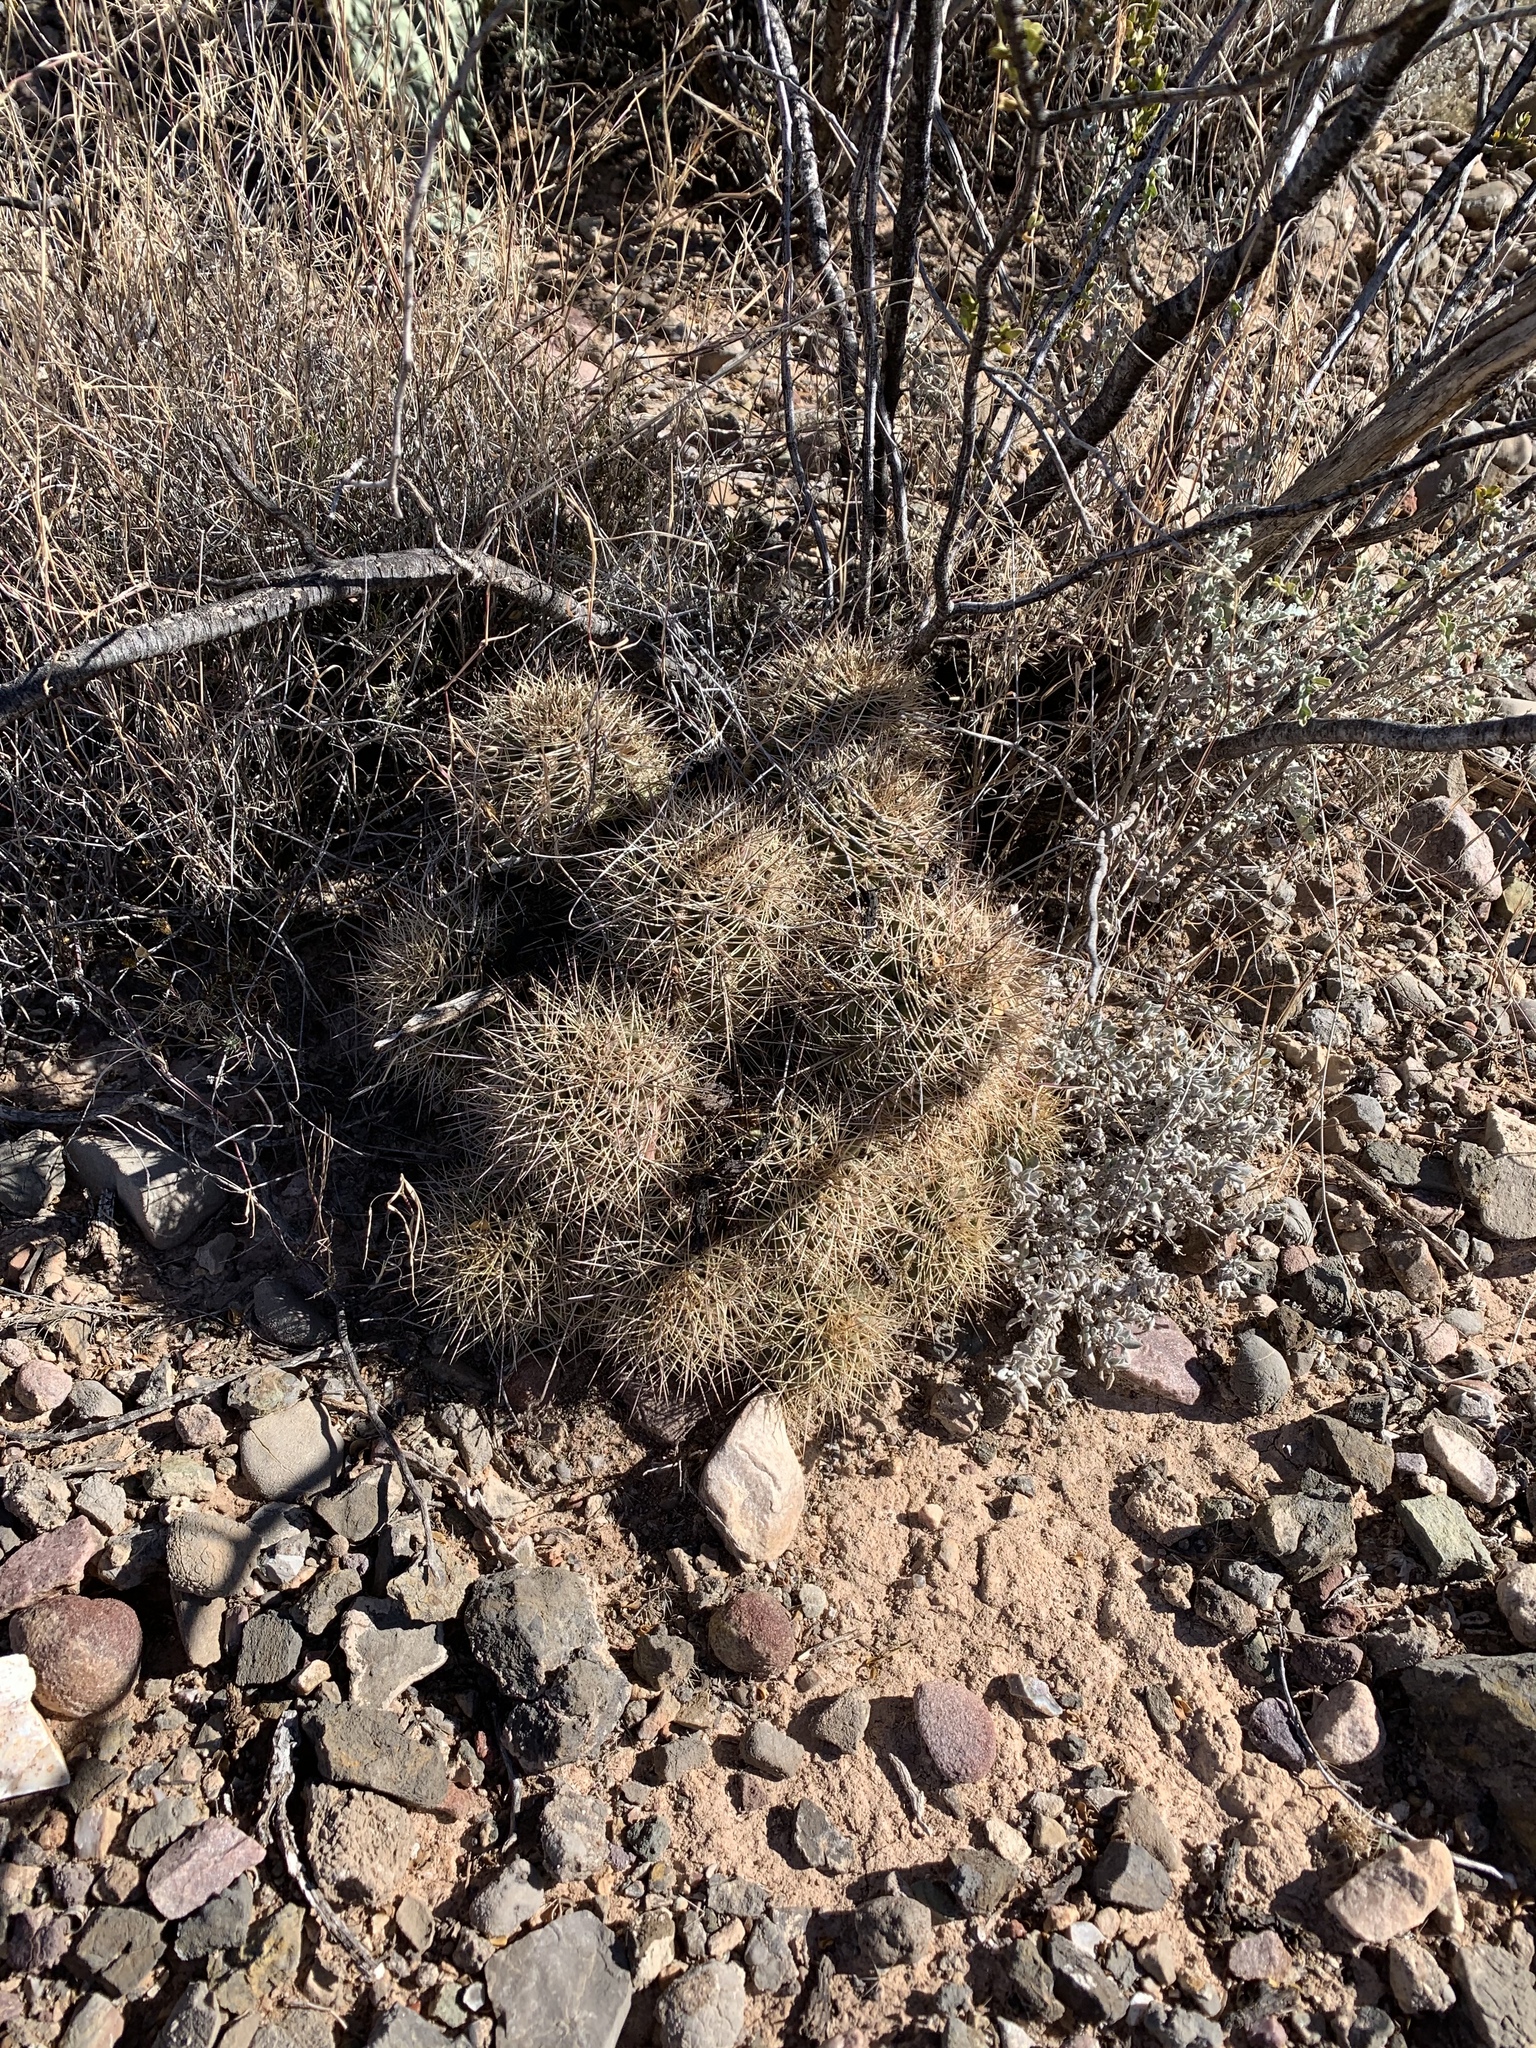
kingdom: Plantae
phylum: Tracheophyta
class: Magnoliopsida
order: Caryophyllales
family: Cactaceae
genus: Echinocereus
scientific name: Echinocereus coccineus
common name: Scarlet hedgehog cactus
